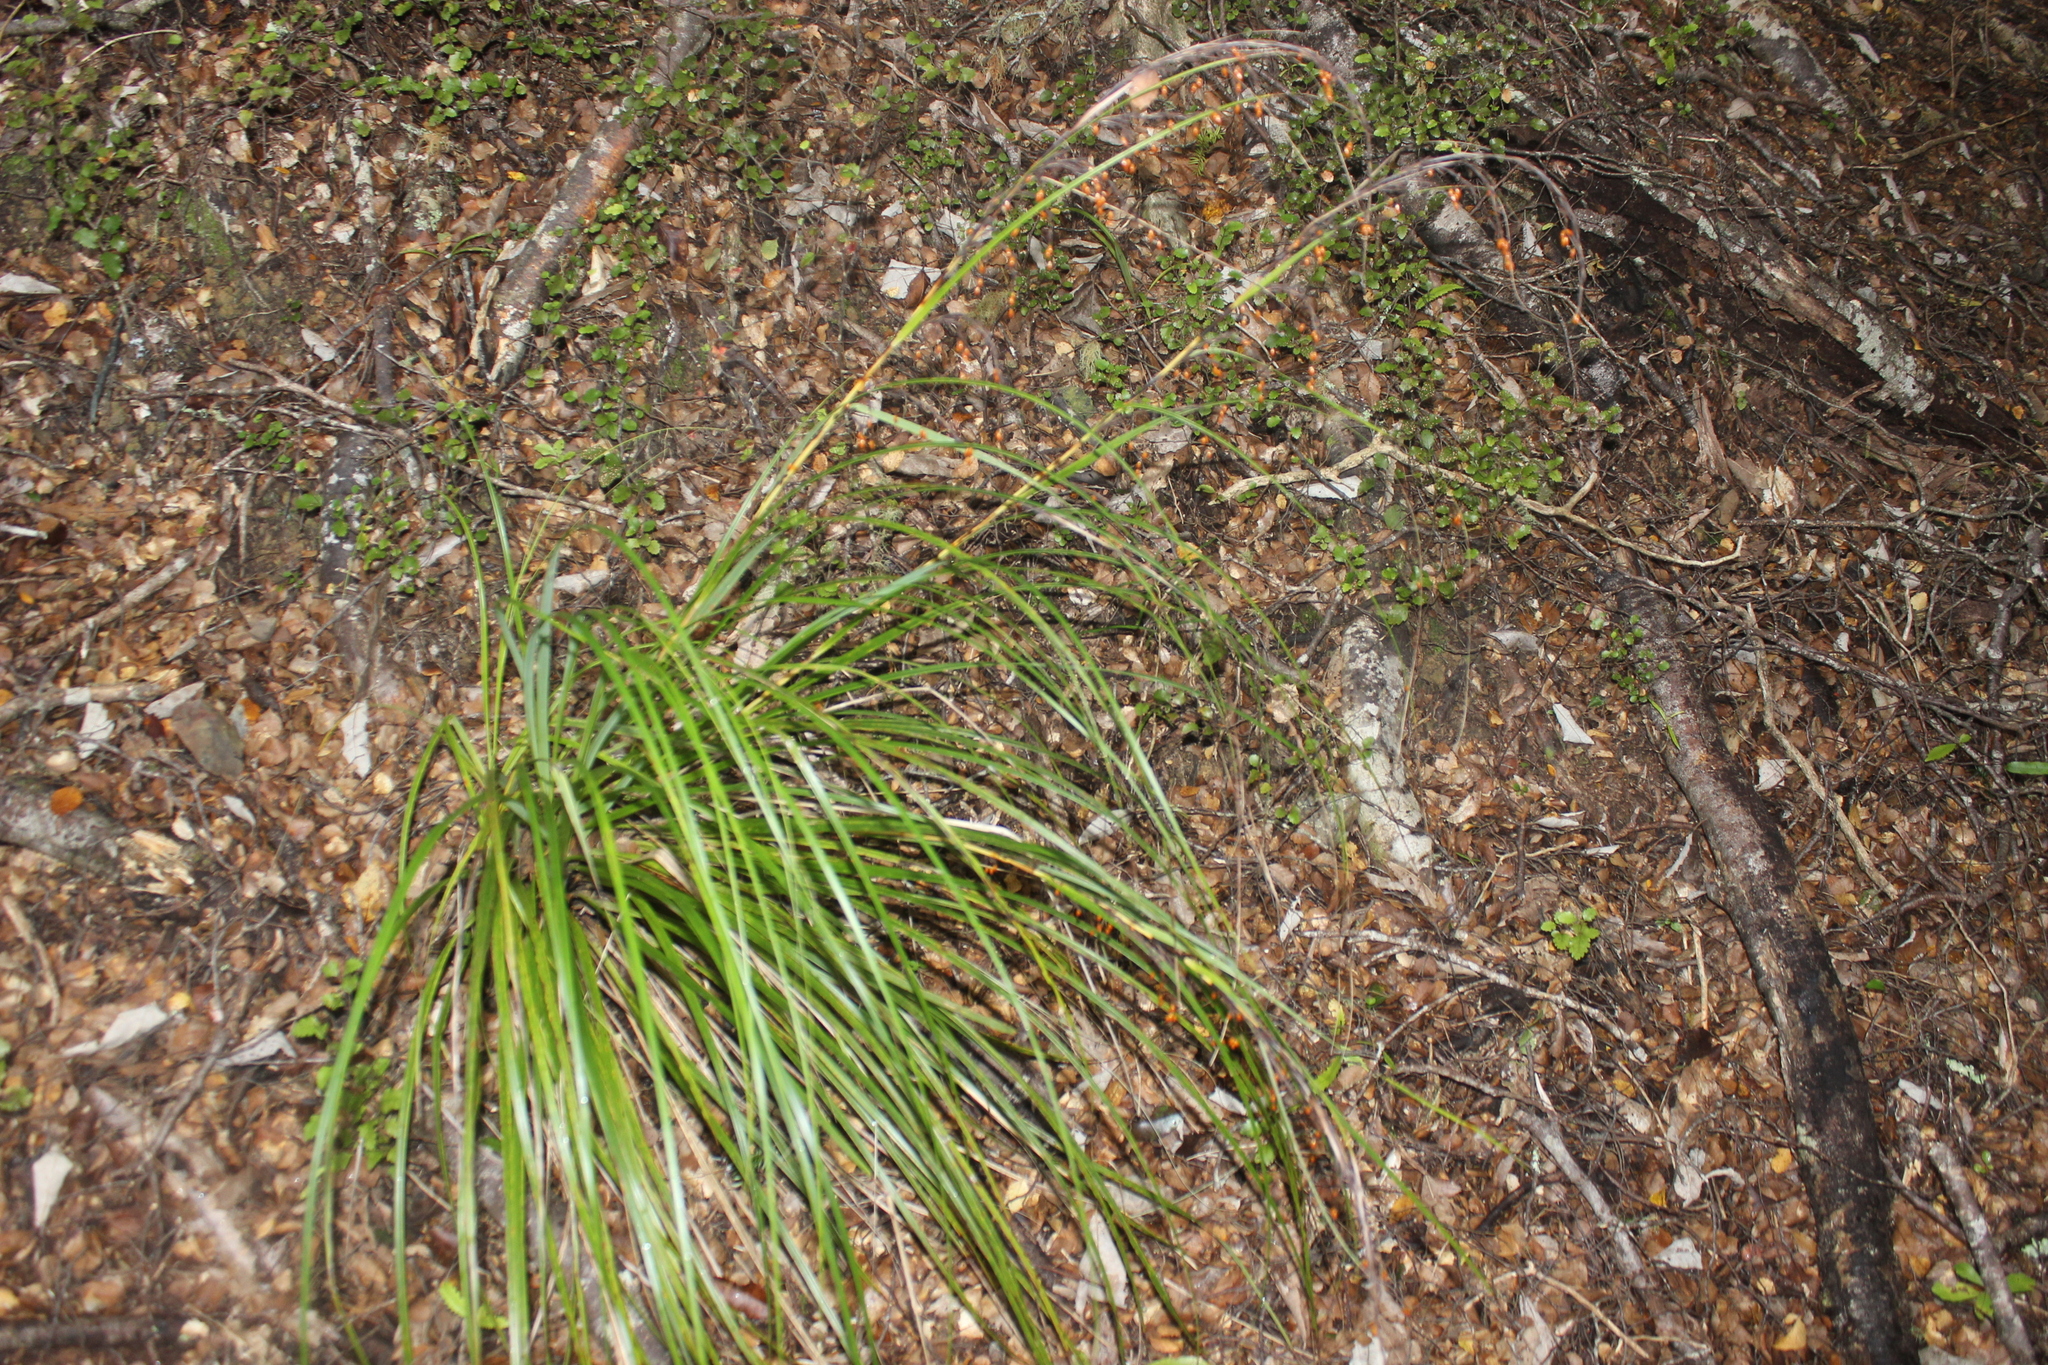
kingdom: Plantae
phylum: Tracheophyta
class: Liliopsida
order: Poales
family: Cyperaceae
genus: Gahnia
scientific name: Gahnia setifolia
